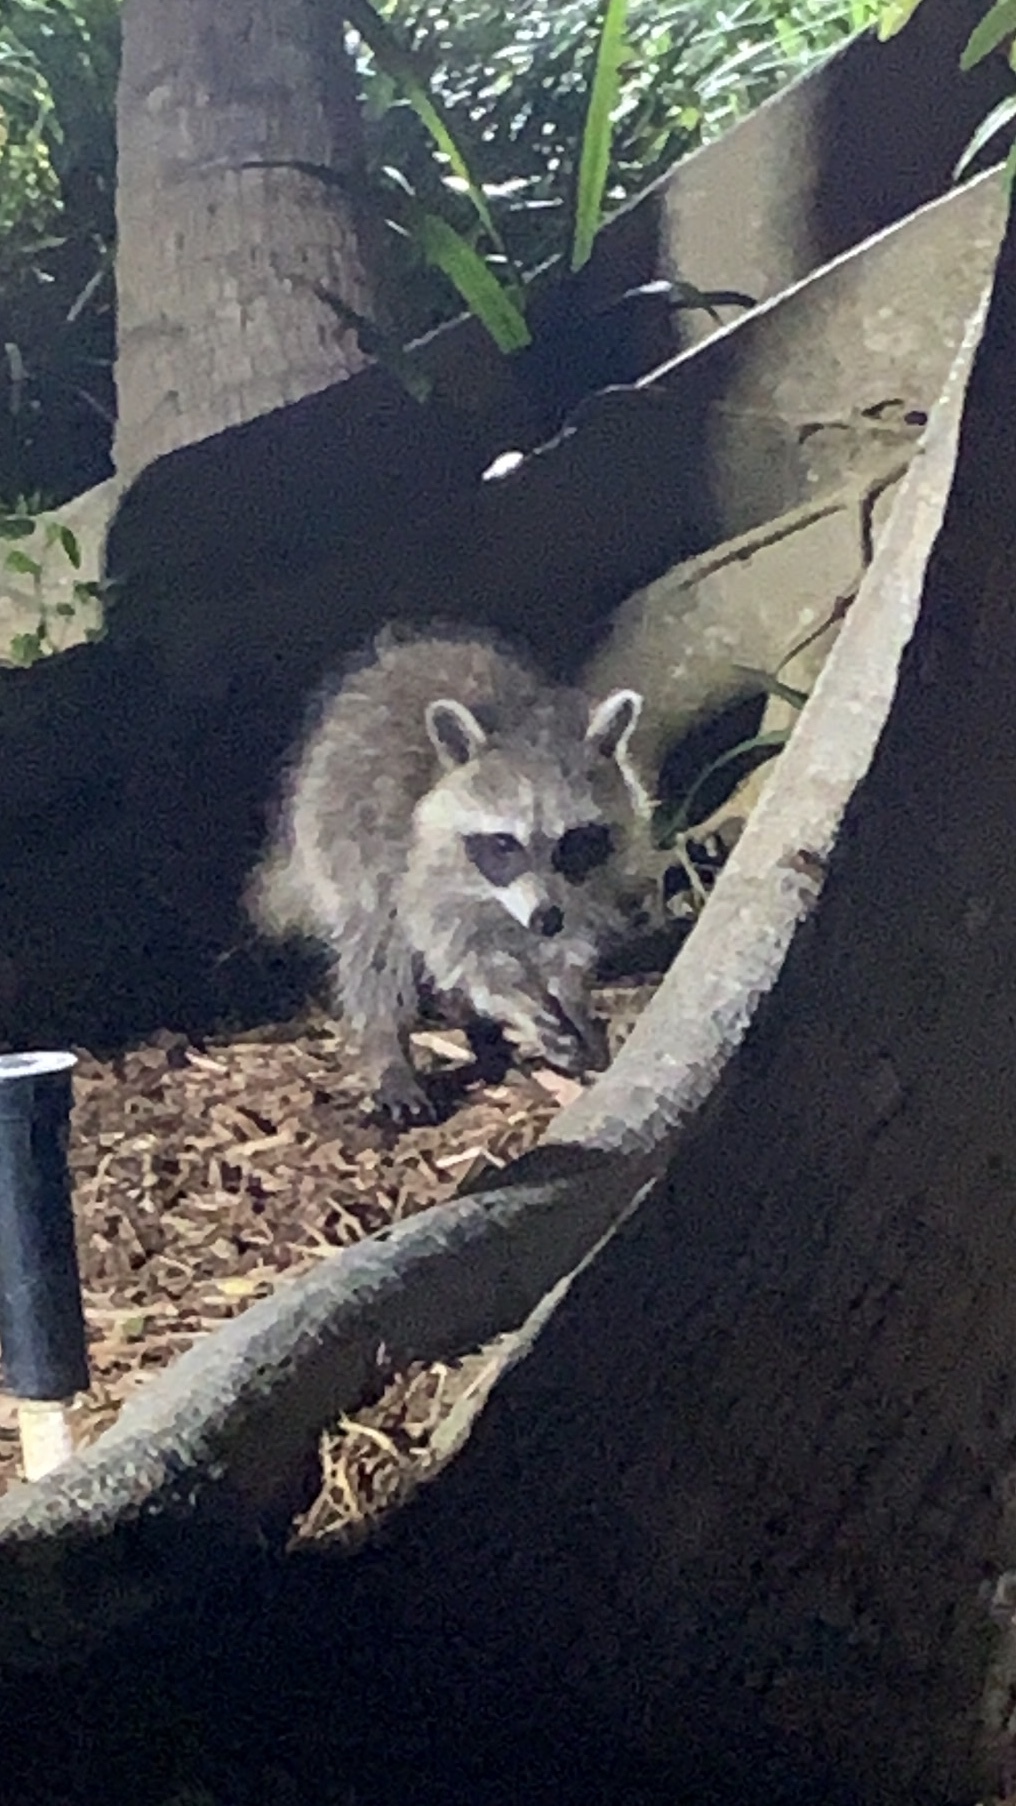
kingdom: Animalia
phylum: Chordata
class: Mammalia
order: Carnivora
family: Procyonidae
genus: Procyon
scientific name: Procyon lotor
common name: Raccoon
